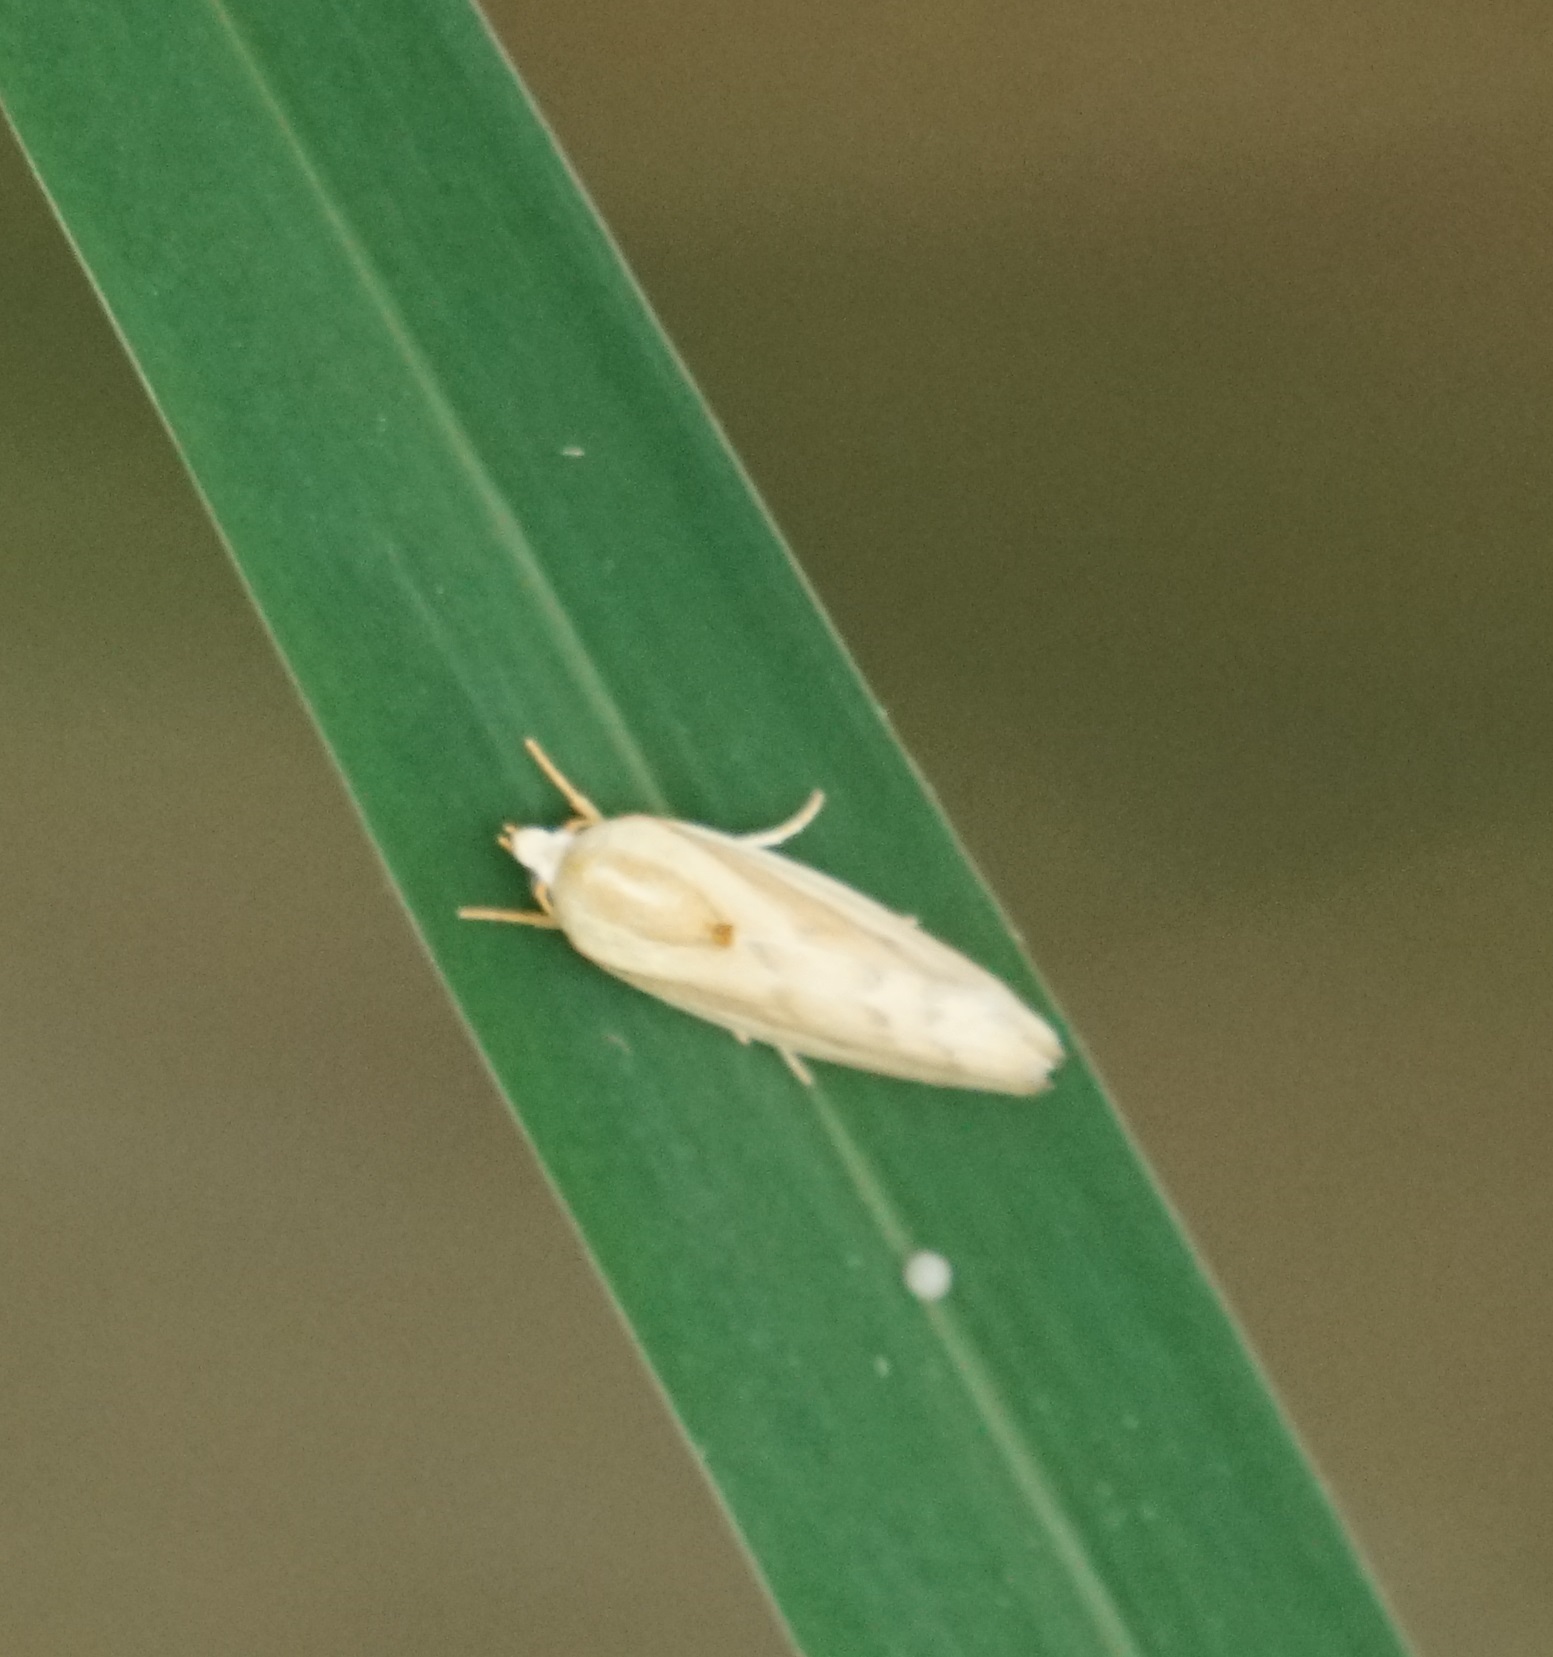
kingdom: Animalia
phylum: Arthropoda
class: Insecta
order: Lepidoptera
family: Nolidae
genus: Earias
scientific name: Earias huegeliana
